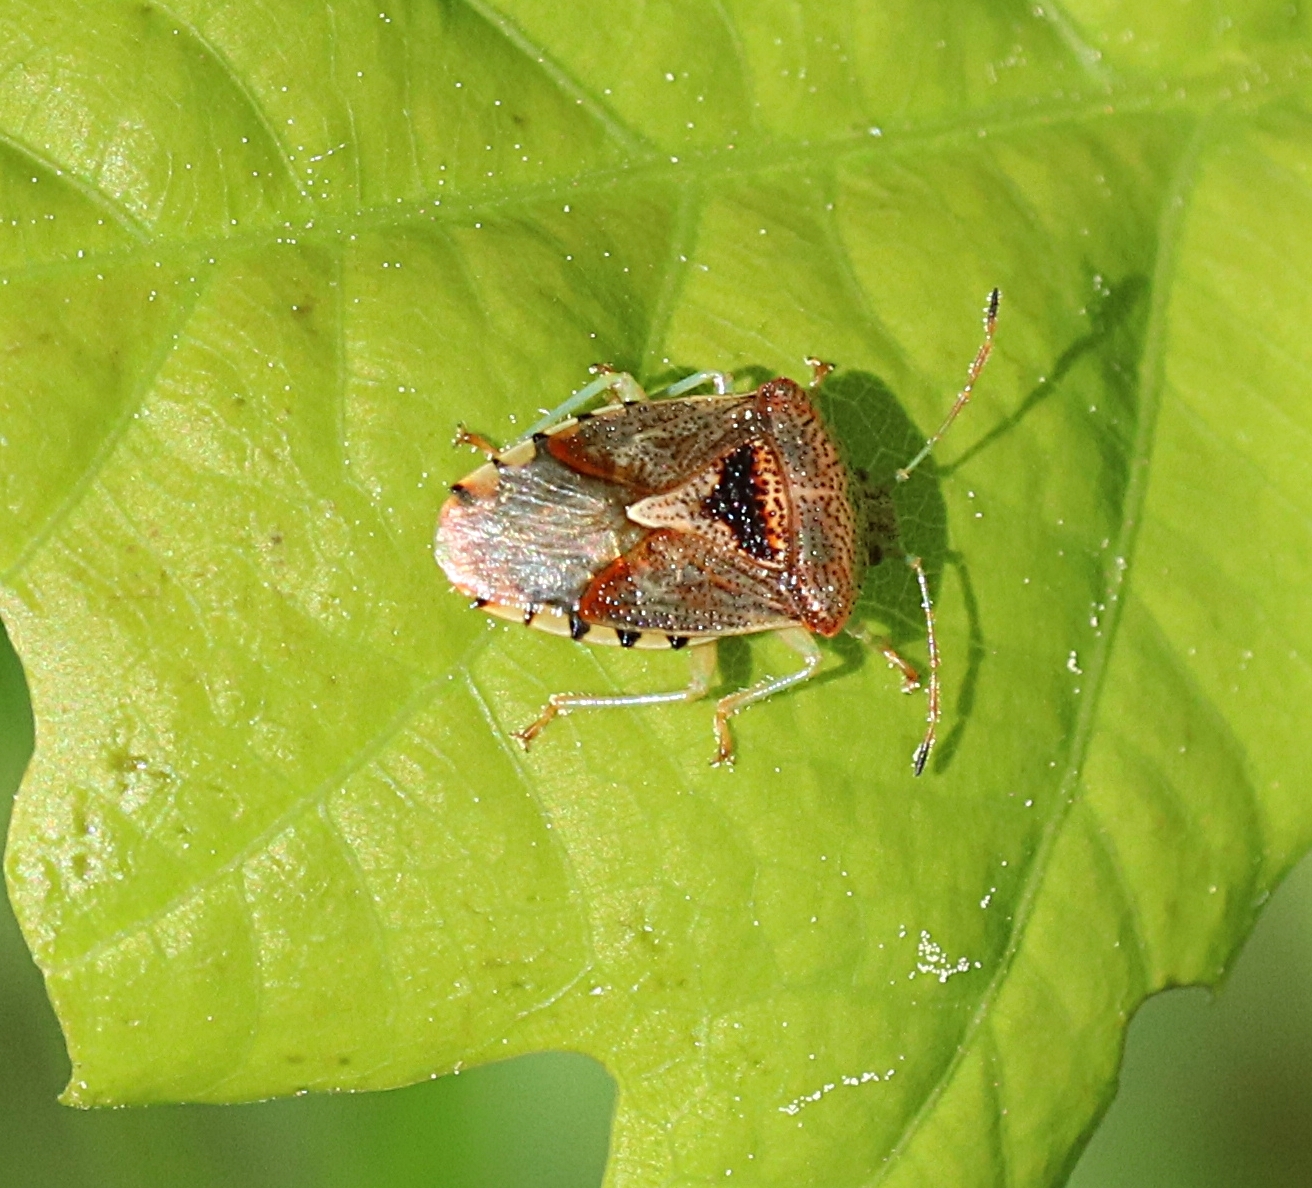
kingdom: Animalia
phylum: Arthropoda
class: Insecta
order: Hemiptera
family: Acanthosomatidae
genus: Elasmucha
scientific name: Elasmucha grisea
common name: Parent bug
